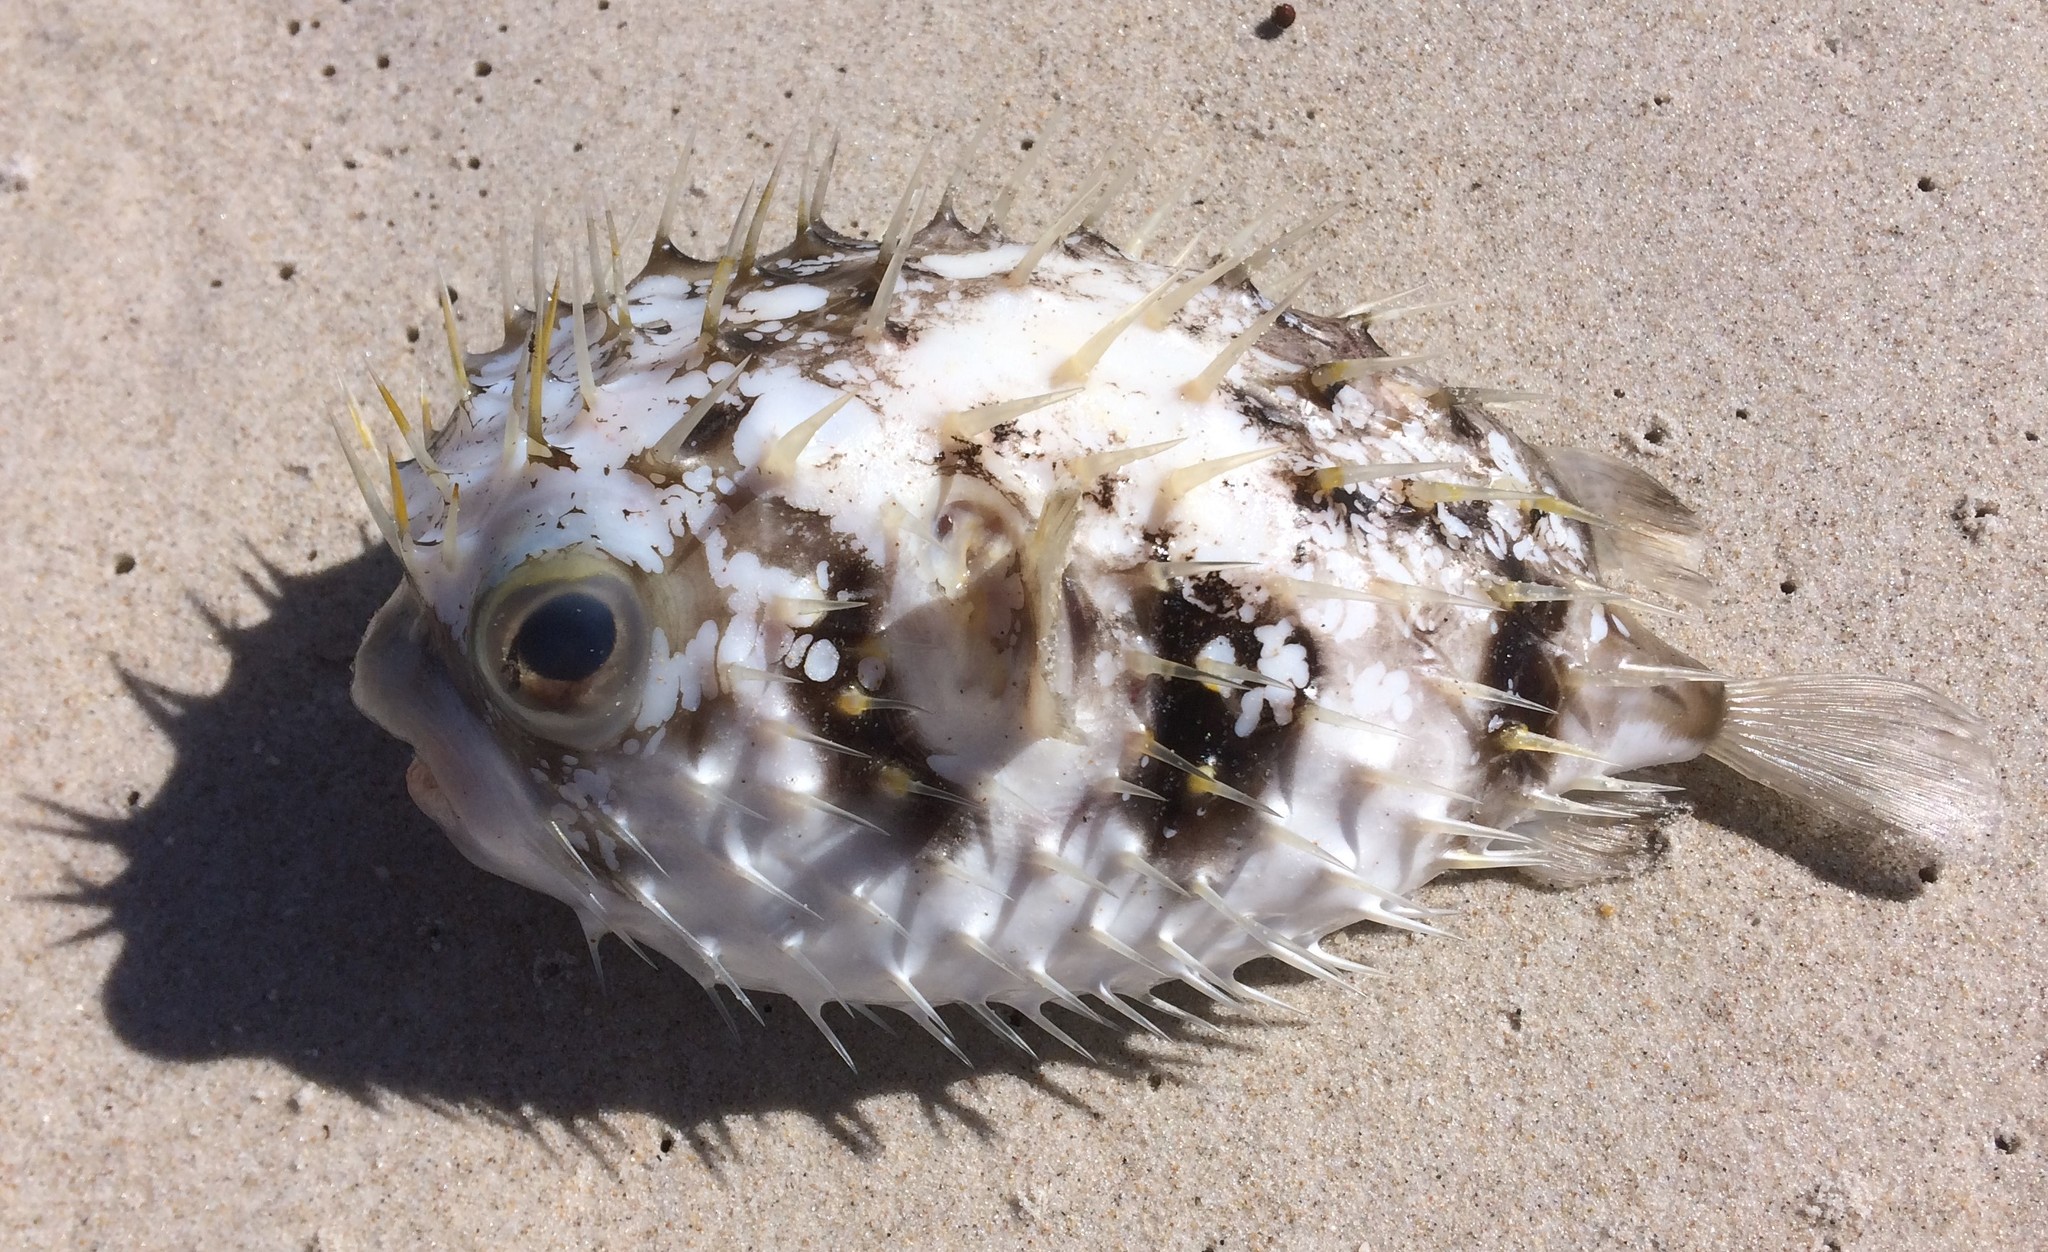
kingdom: Animalia
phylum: Chordata
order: Tetraodontiformes
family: Diodontidae
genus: Diodon
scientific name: Diodon nicthemerus
